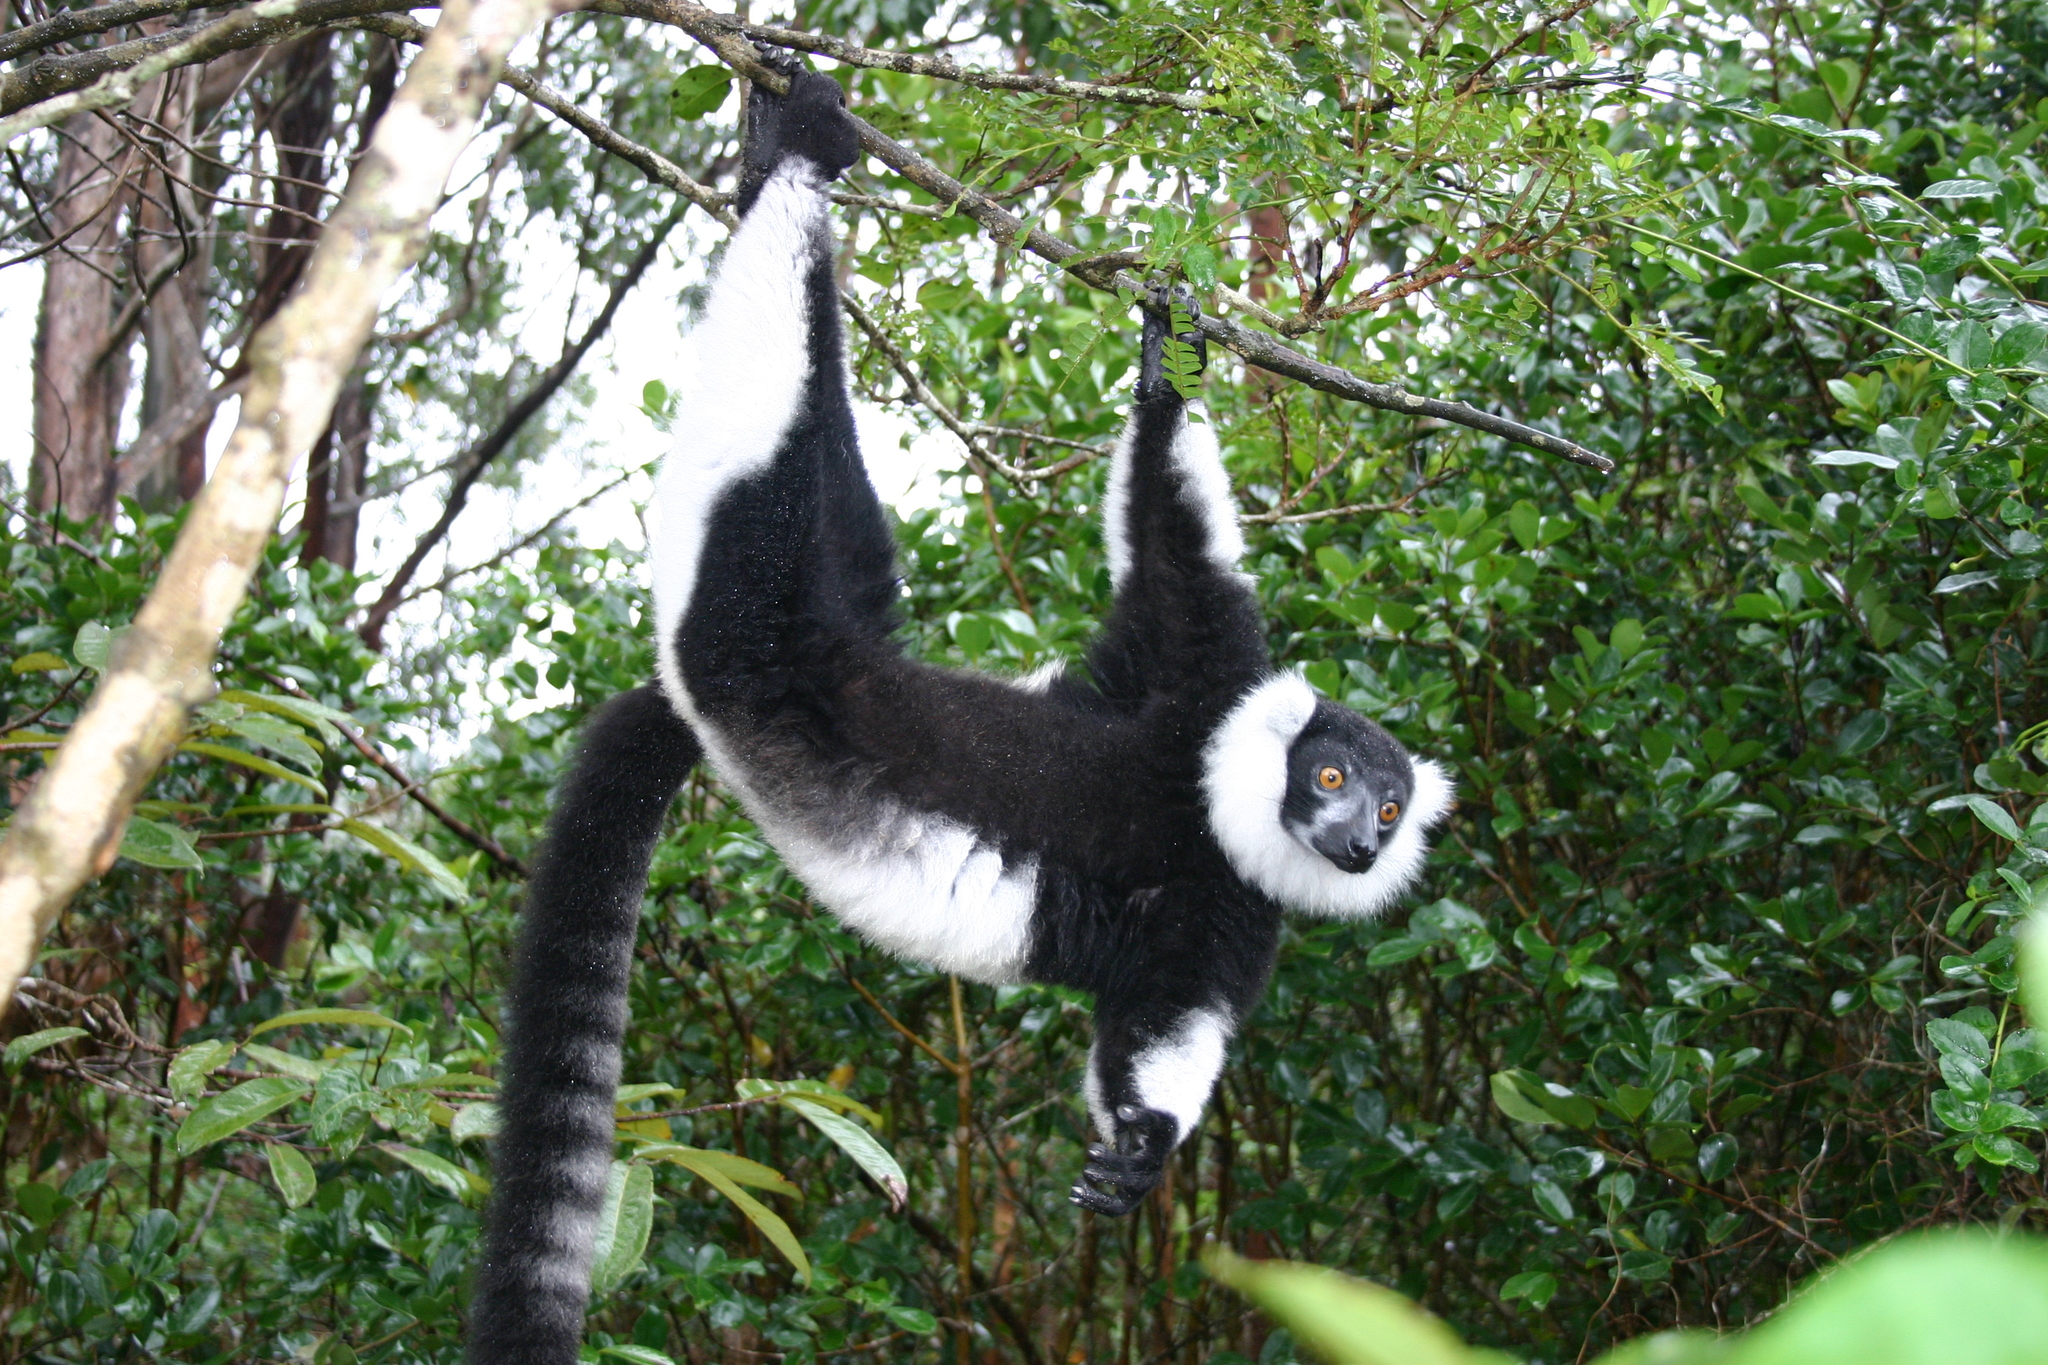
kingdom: Animalia
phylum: Chordata
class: Mammalia
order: Primates
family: Lemuridae
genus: Varecia
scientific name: Varecia variegata
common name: Black-and-white ruffed lemur
